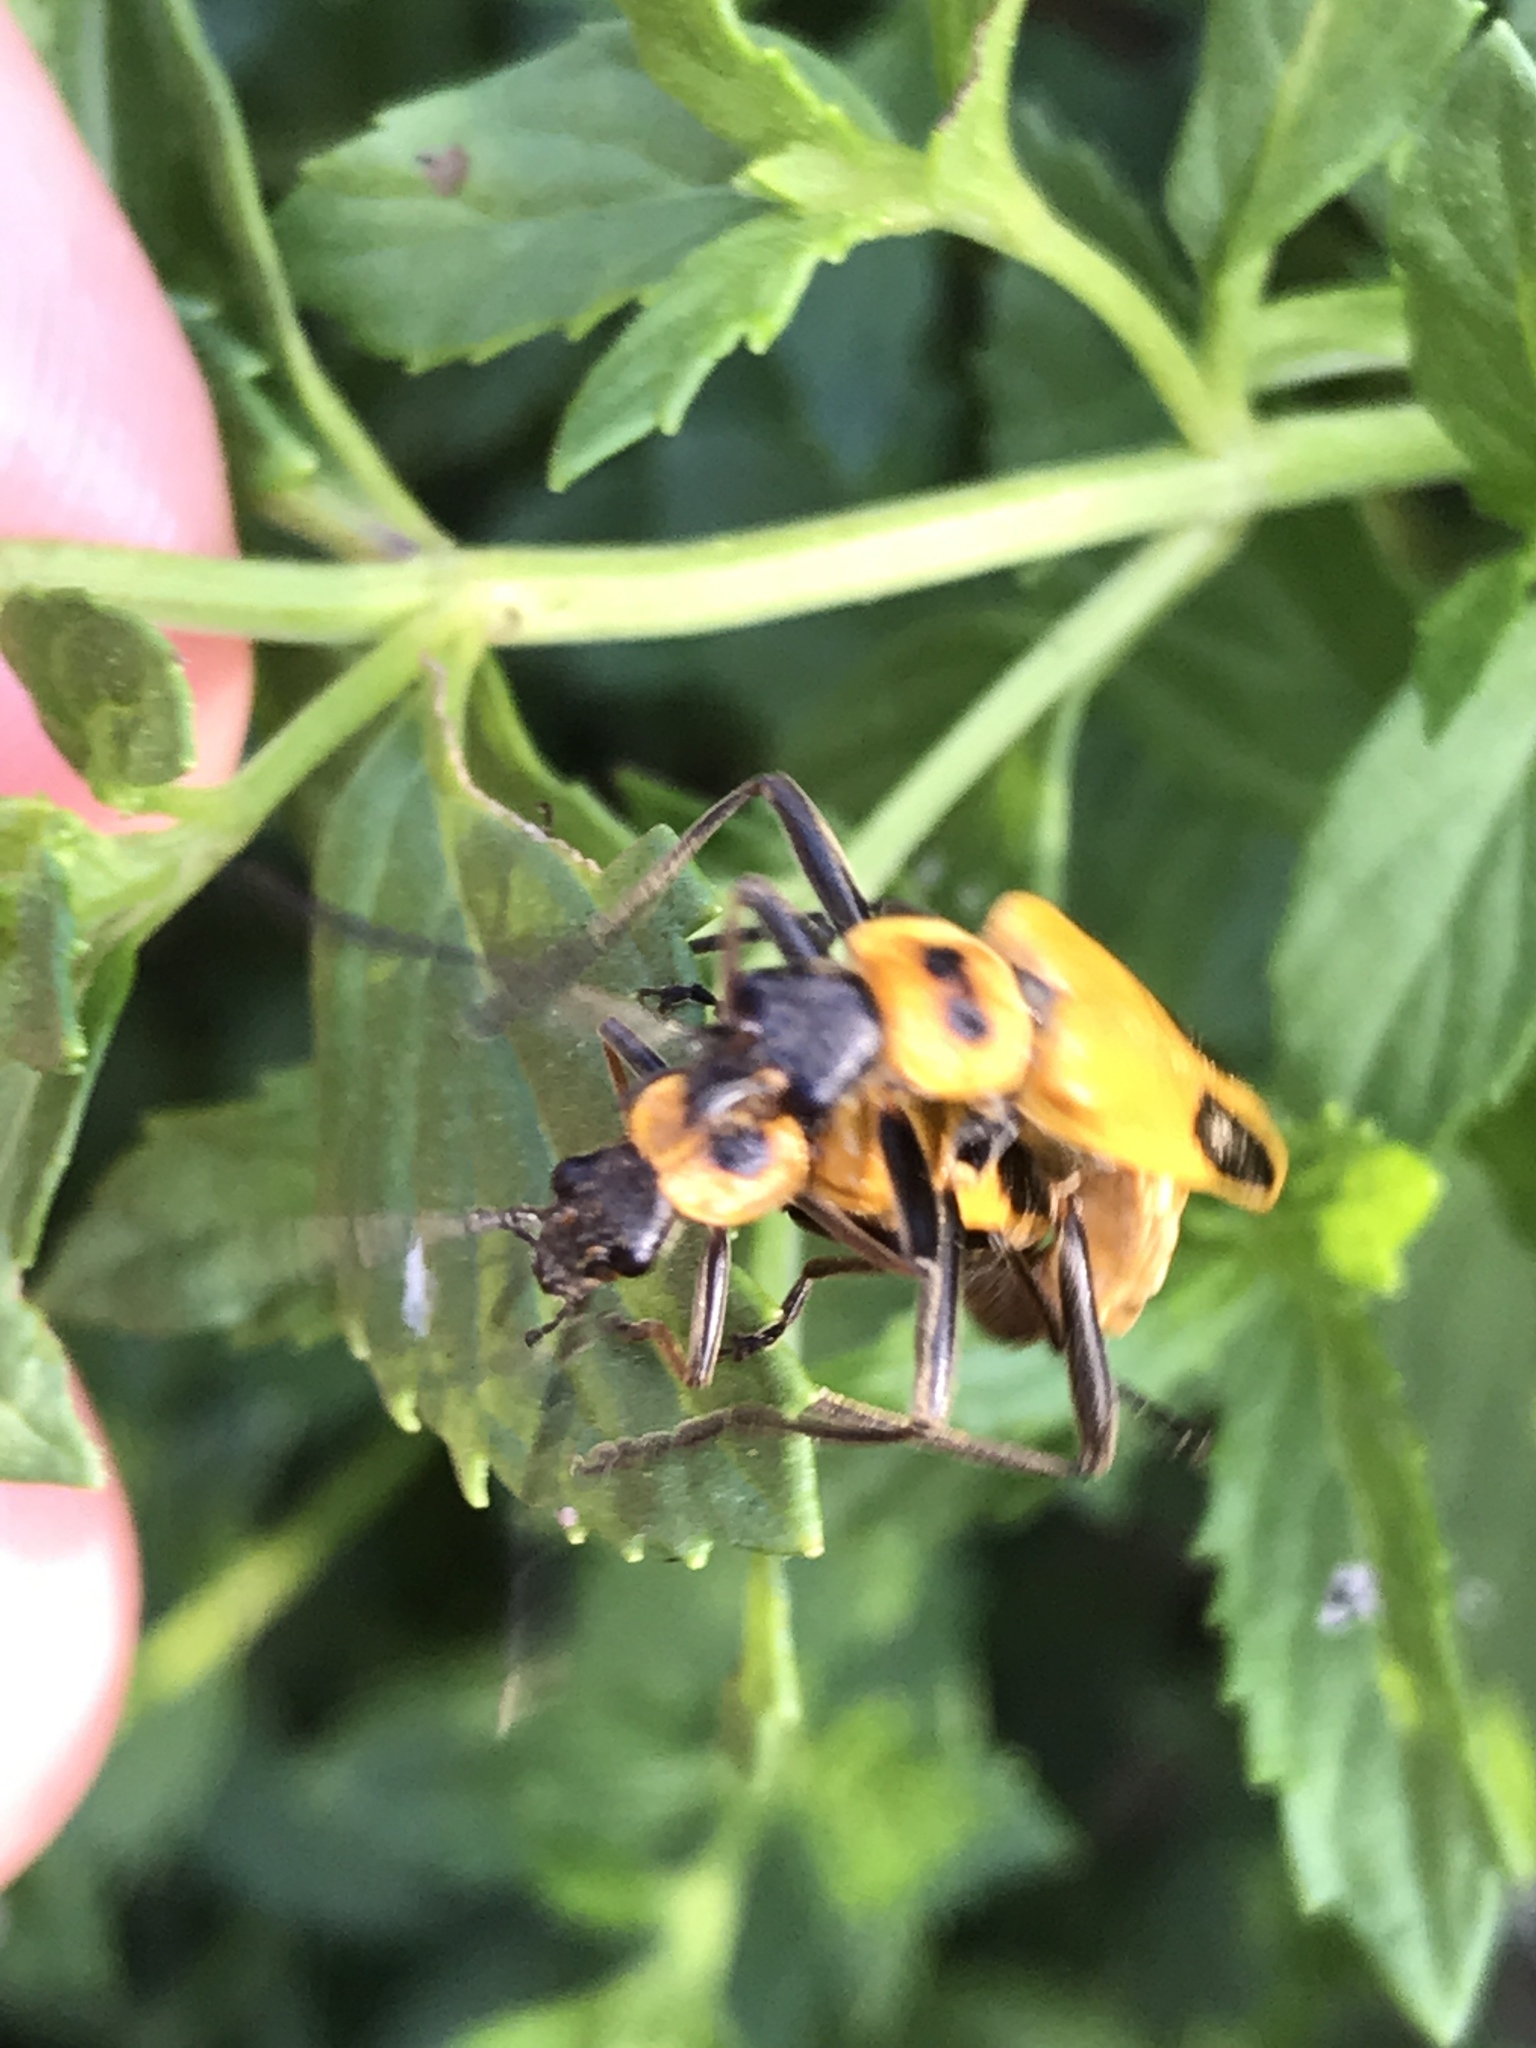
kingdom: Animalia
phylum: Arthropoda
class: Insecta
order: Coleoptera
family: Cantharidae
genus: Chauliognathus
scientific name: Chauliognathus pensylvanicus
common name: Goldenrod soldier beetle
